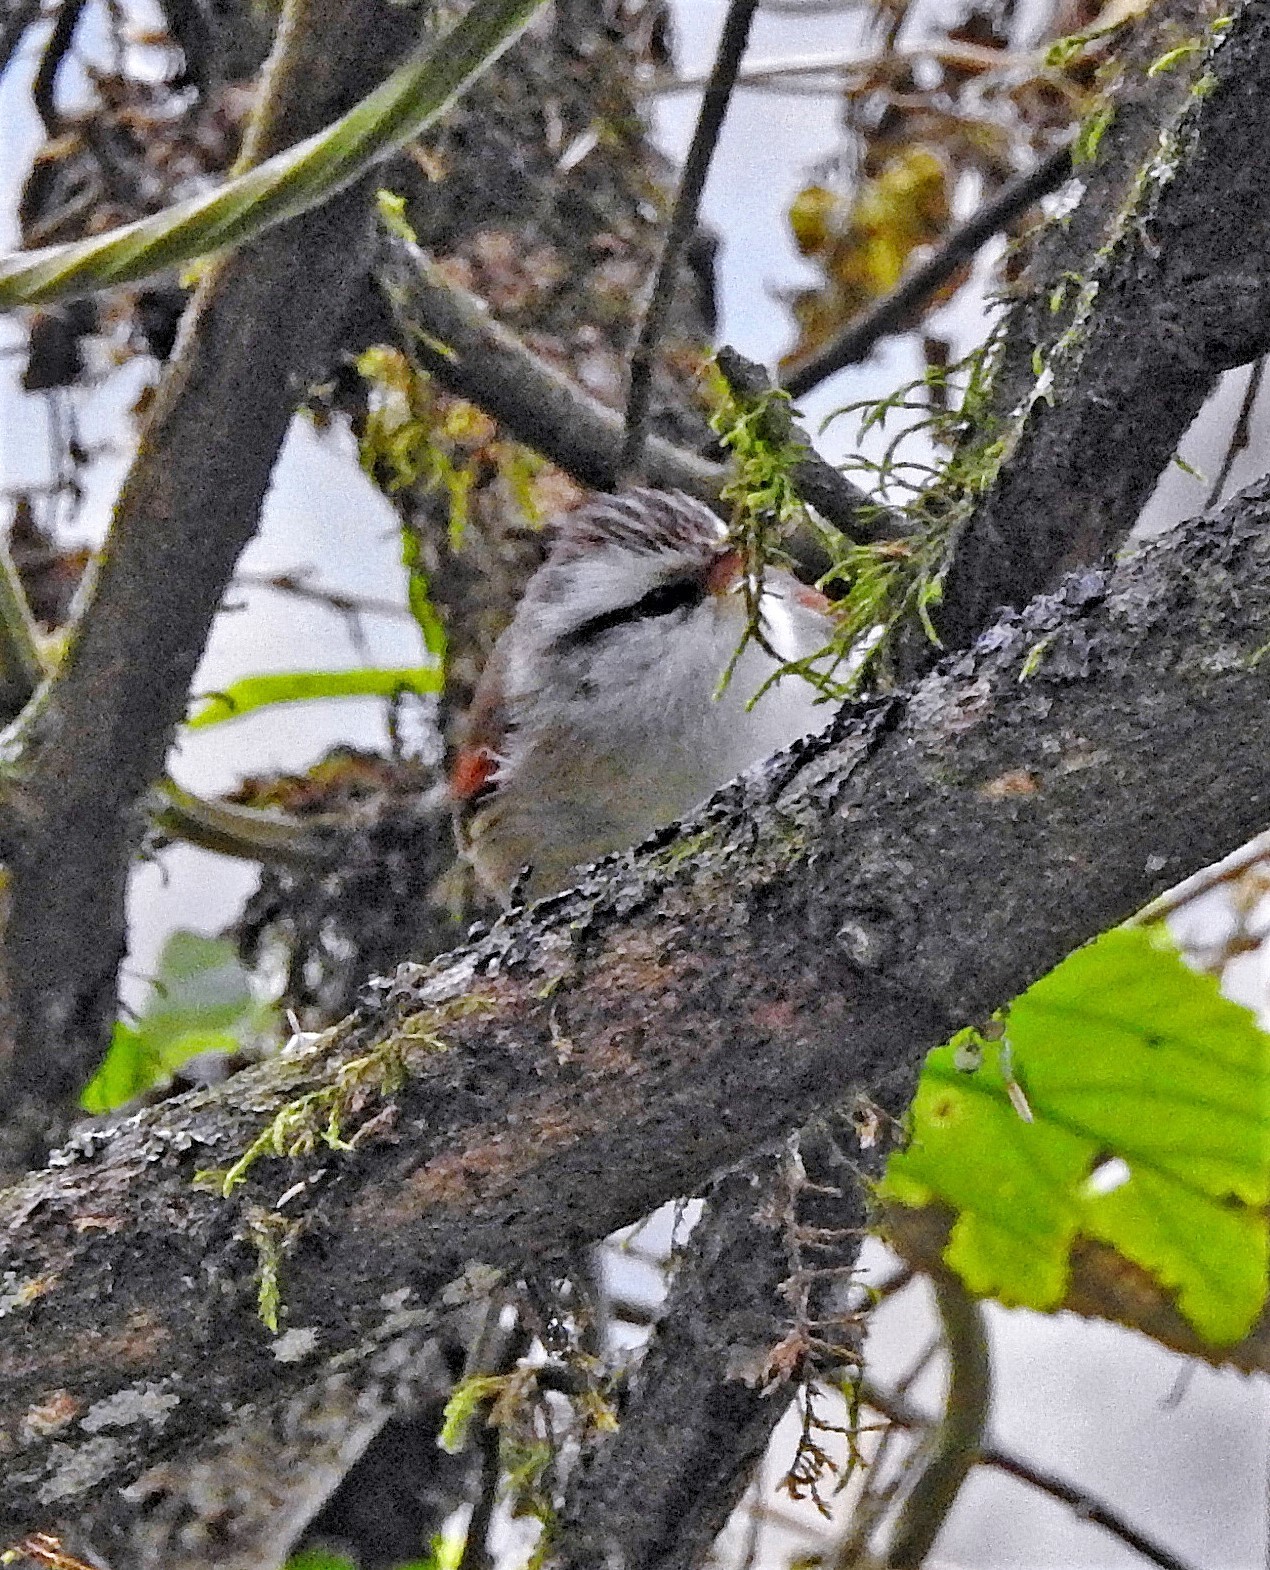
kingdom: Animalia
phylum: Chordata
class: Aves
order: Passeriformes
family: Furnariidae
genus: Cranioleuca
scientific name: Cranioleuca pyrrhophia
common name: Stripe-crowned spinetail
